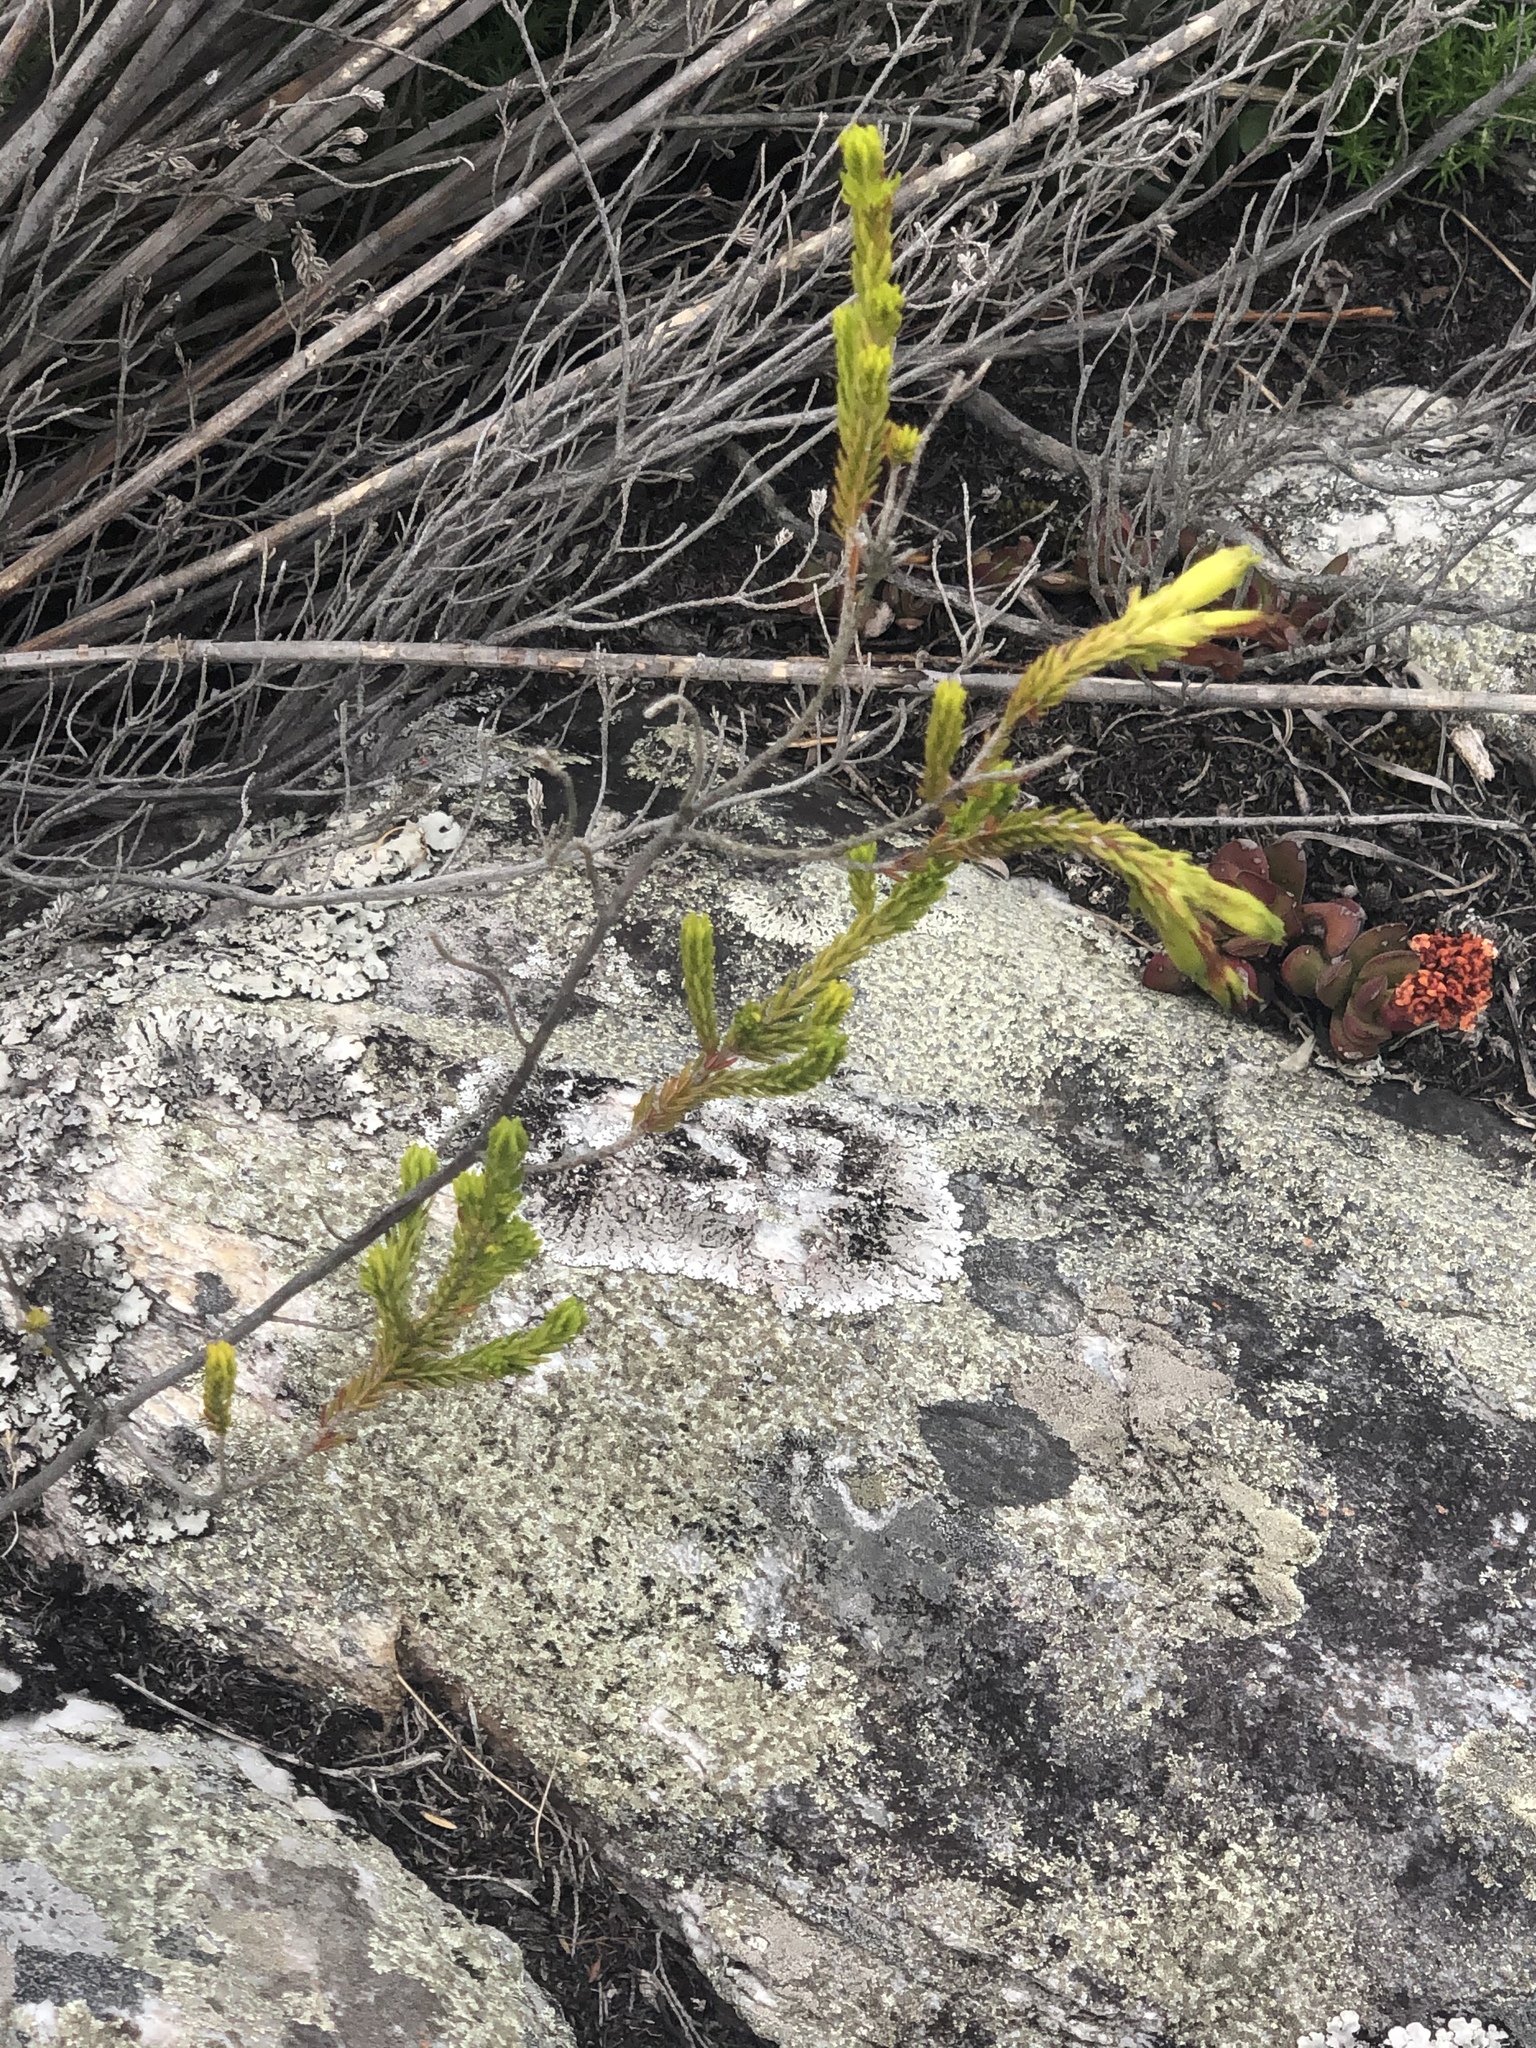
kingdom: Plantae
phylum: Tracheophyta
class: Magnoliopsida
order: Ericales
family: Ericaceae
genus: Erica
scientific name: Erica viridiflora
